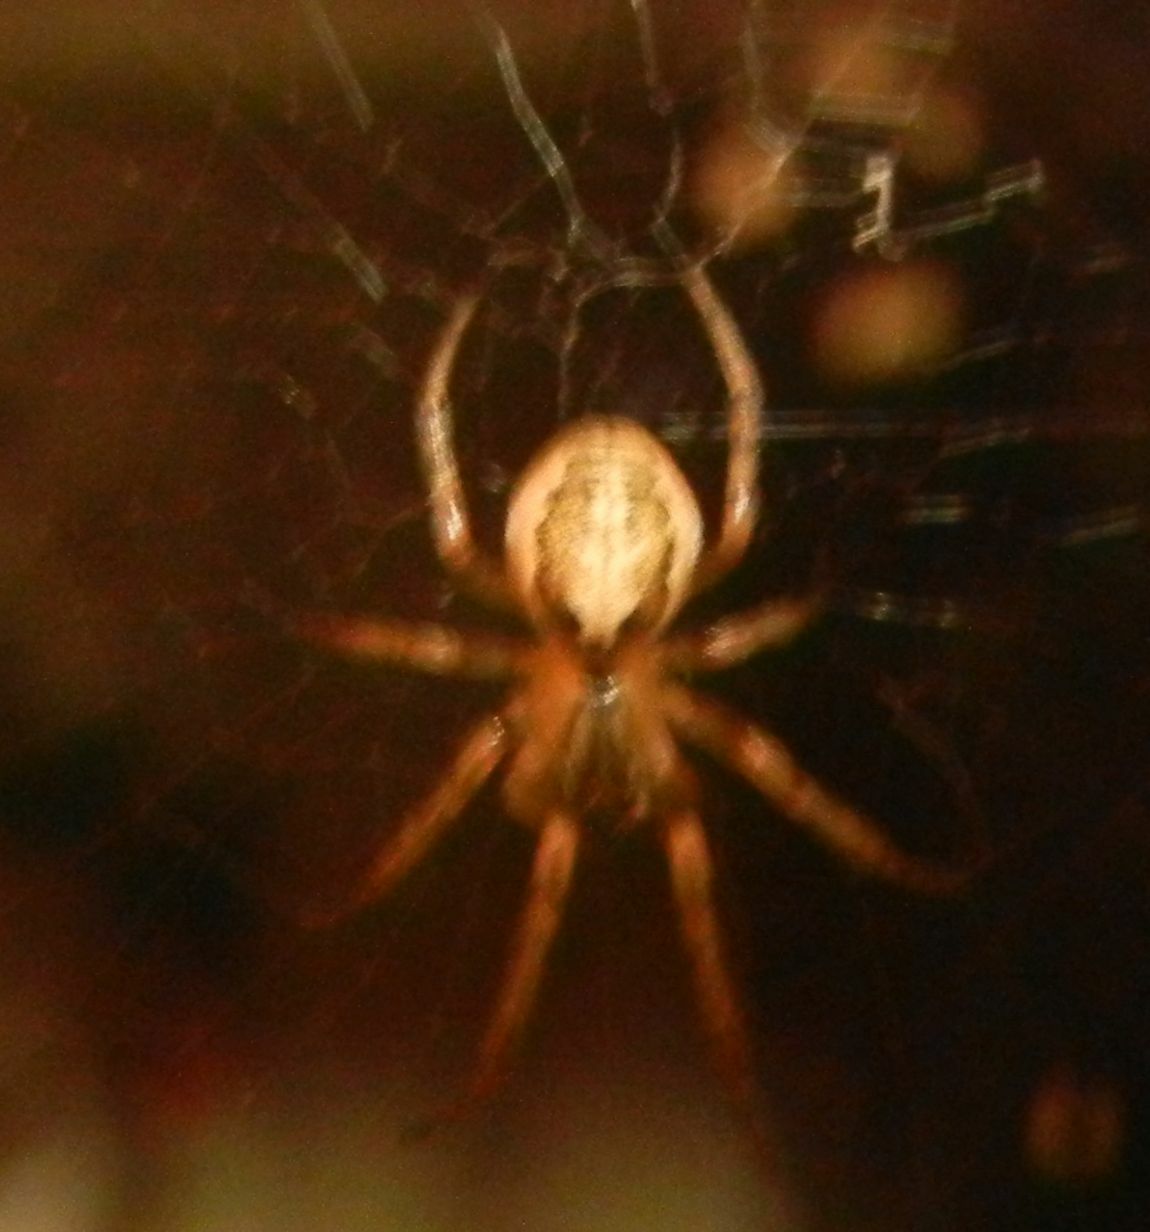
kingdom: Animalia
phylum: Arthropoda
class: Arachnida
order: Araneae
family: Araneidae
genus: Zygiella
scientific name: Zygiella x-notata
